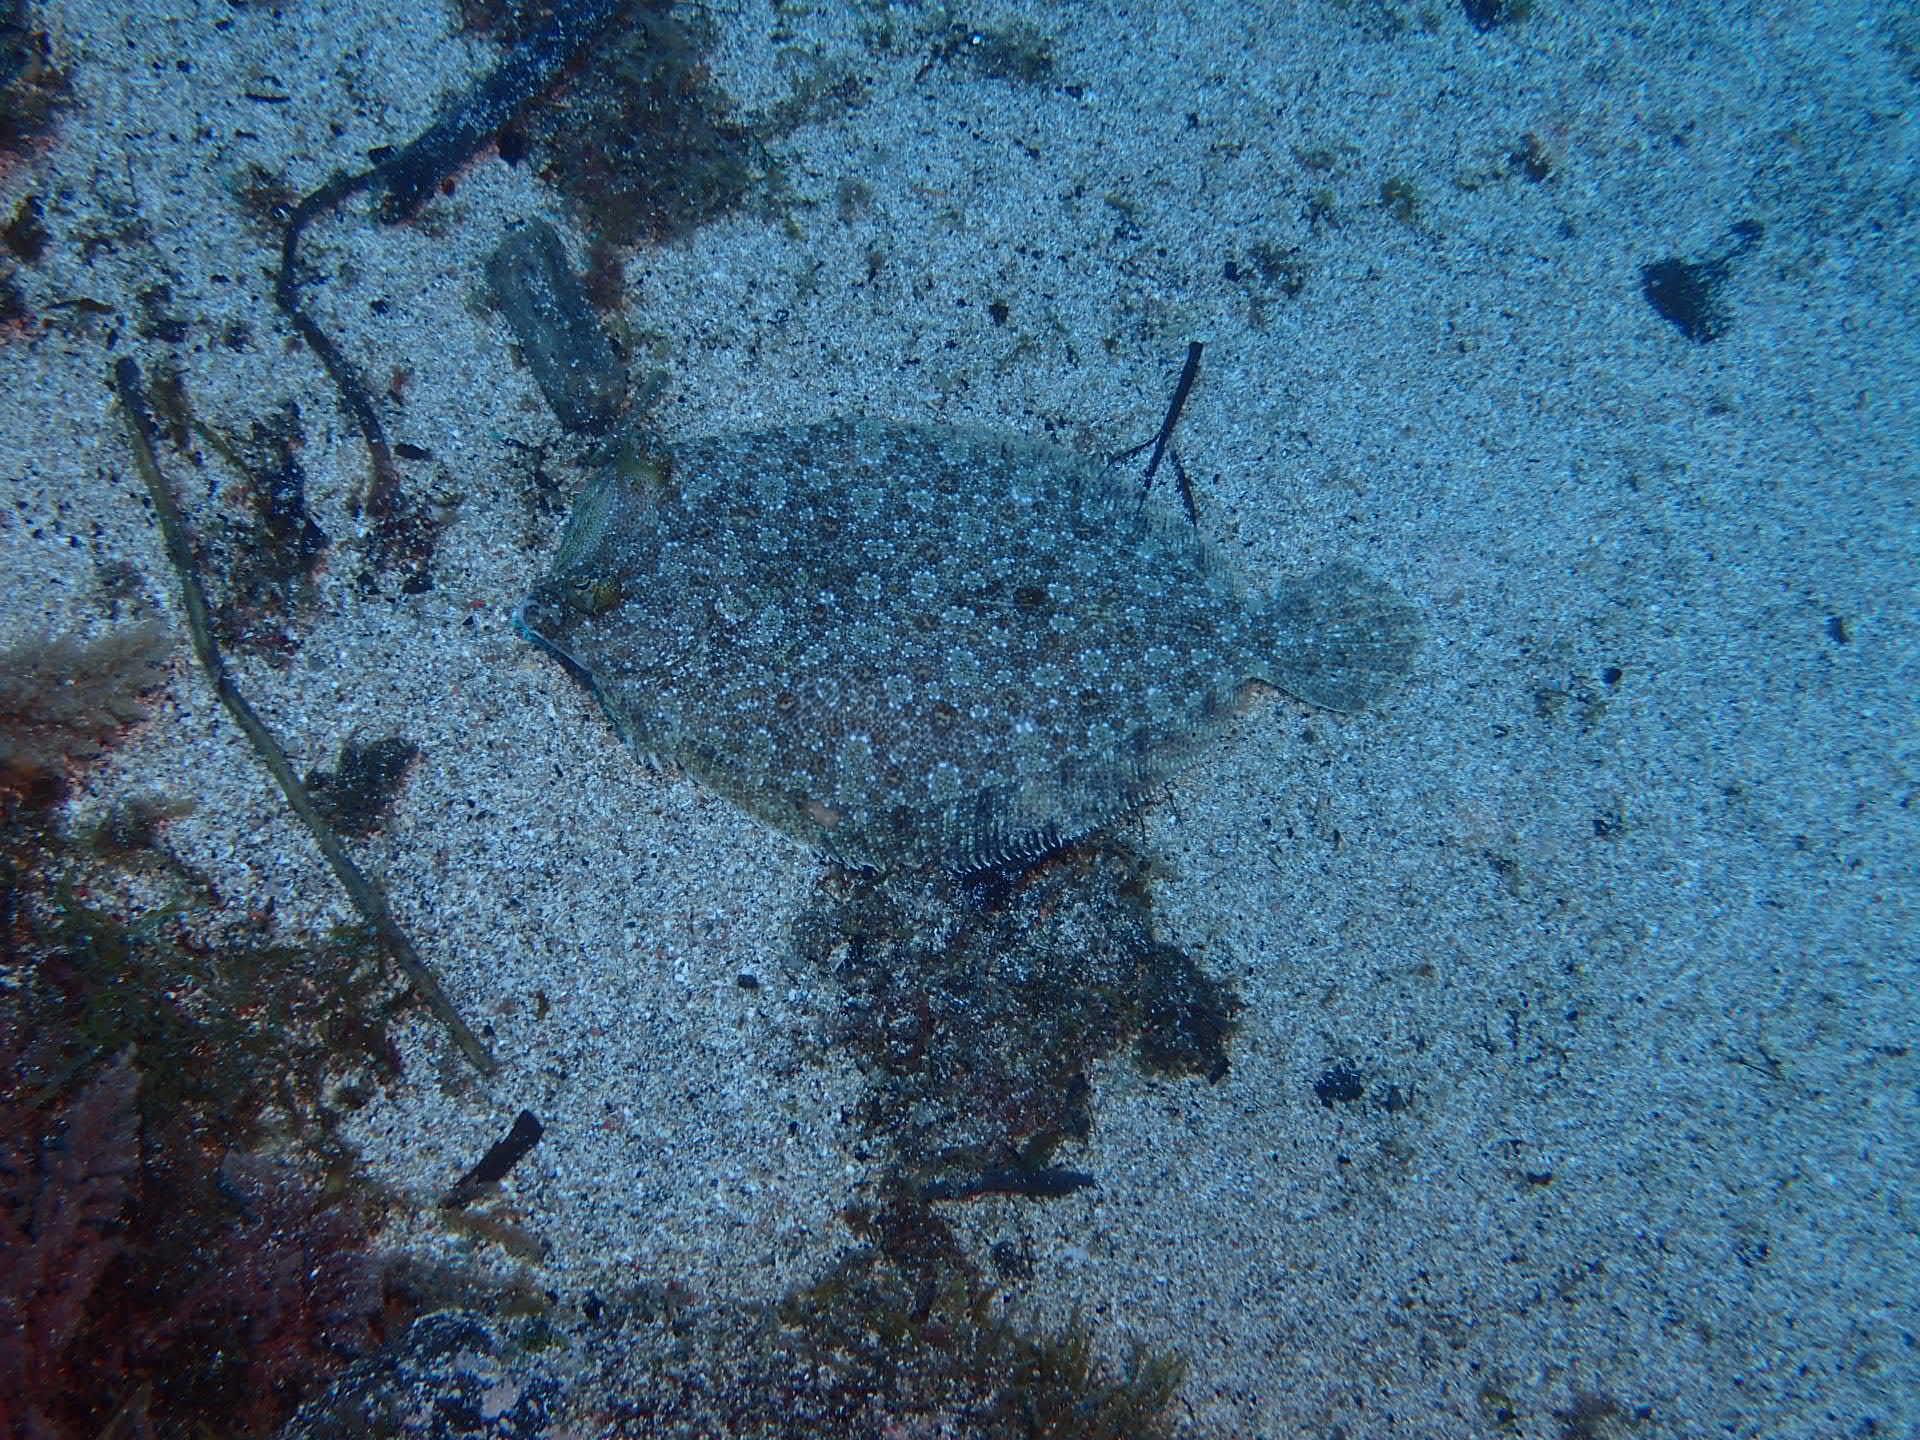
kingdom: Animalia
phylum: Chordata
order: Pleuronectiformes
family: Bothidae
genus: Bothus
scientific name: Bothus podas
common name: Wide-eyed flounder
